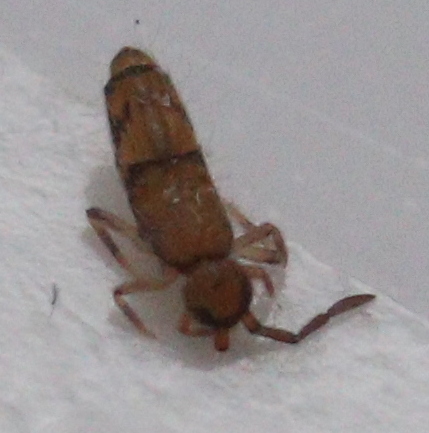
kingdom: Animalia
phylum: Arthropoda
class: Collembola
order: Entomobryomorpha
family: Entomobryidae
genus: Willowsia
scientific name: Willowsia nigromaculata
